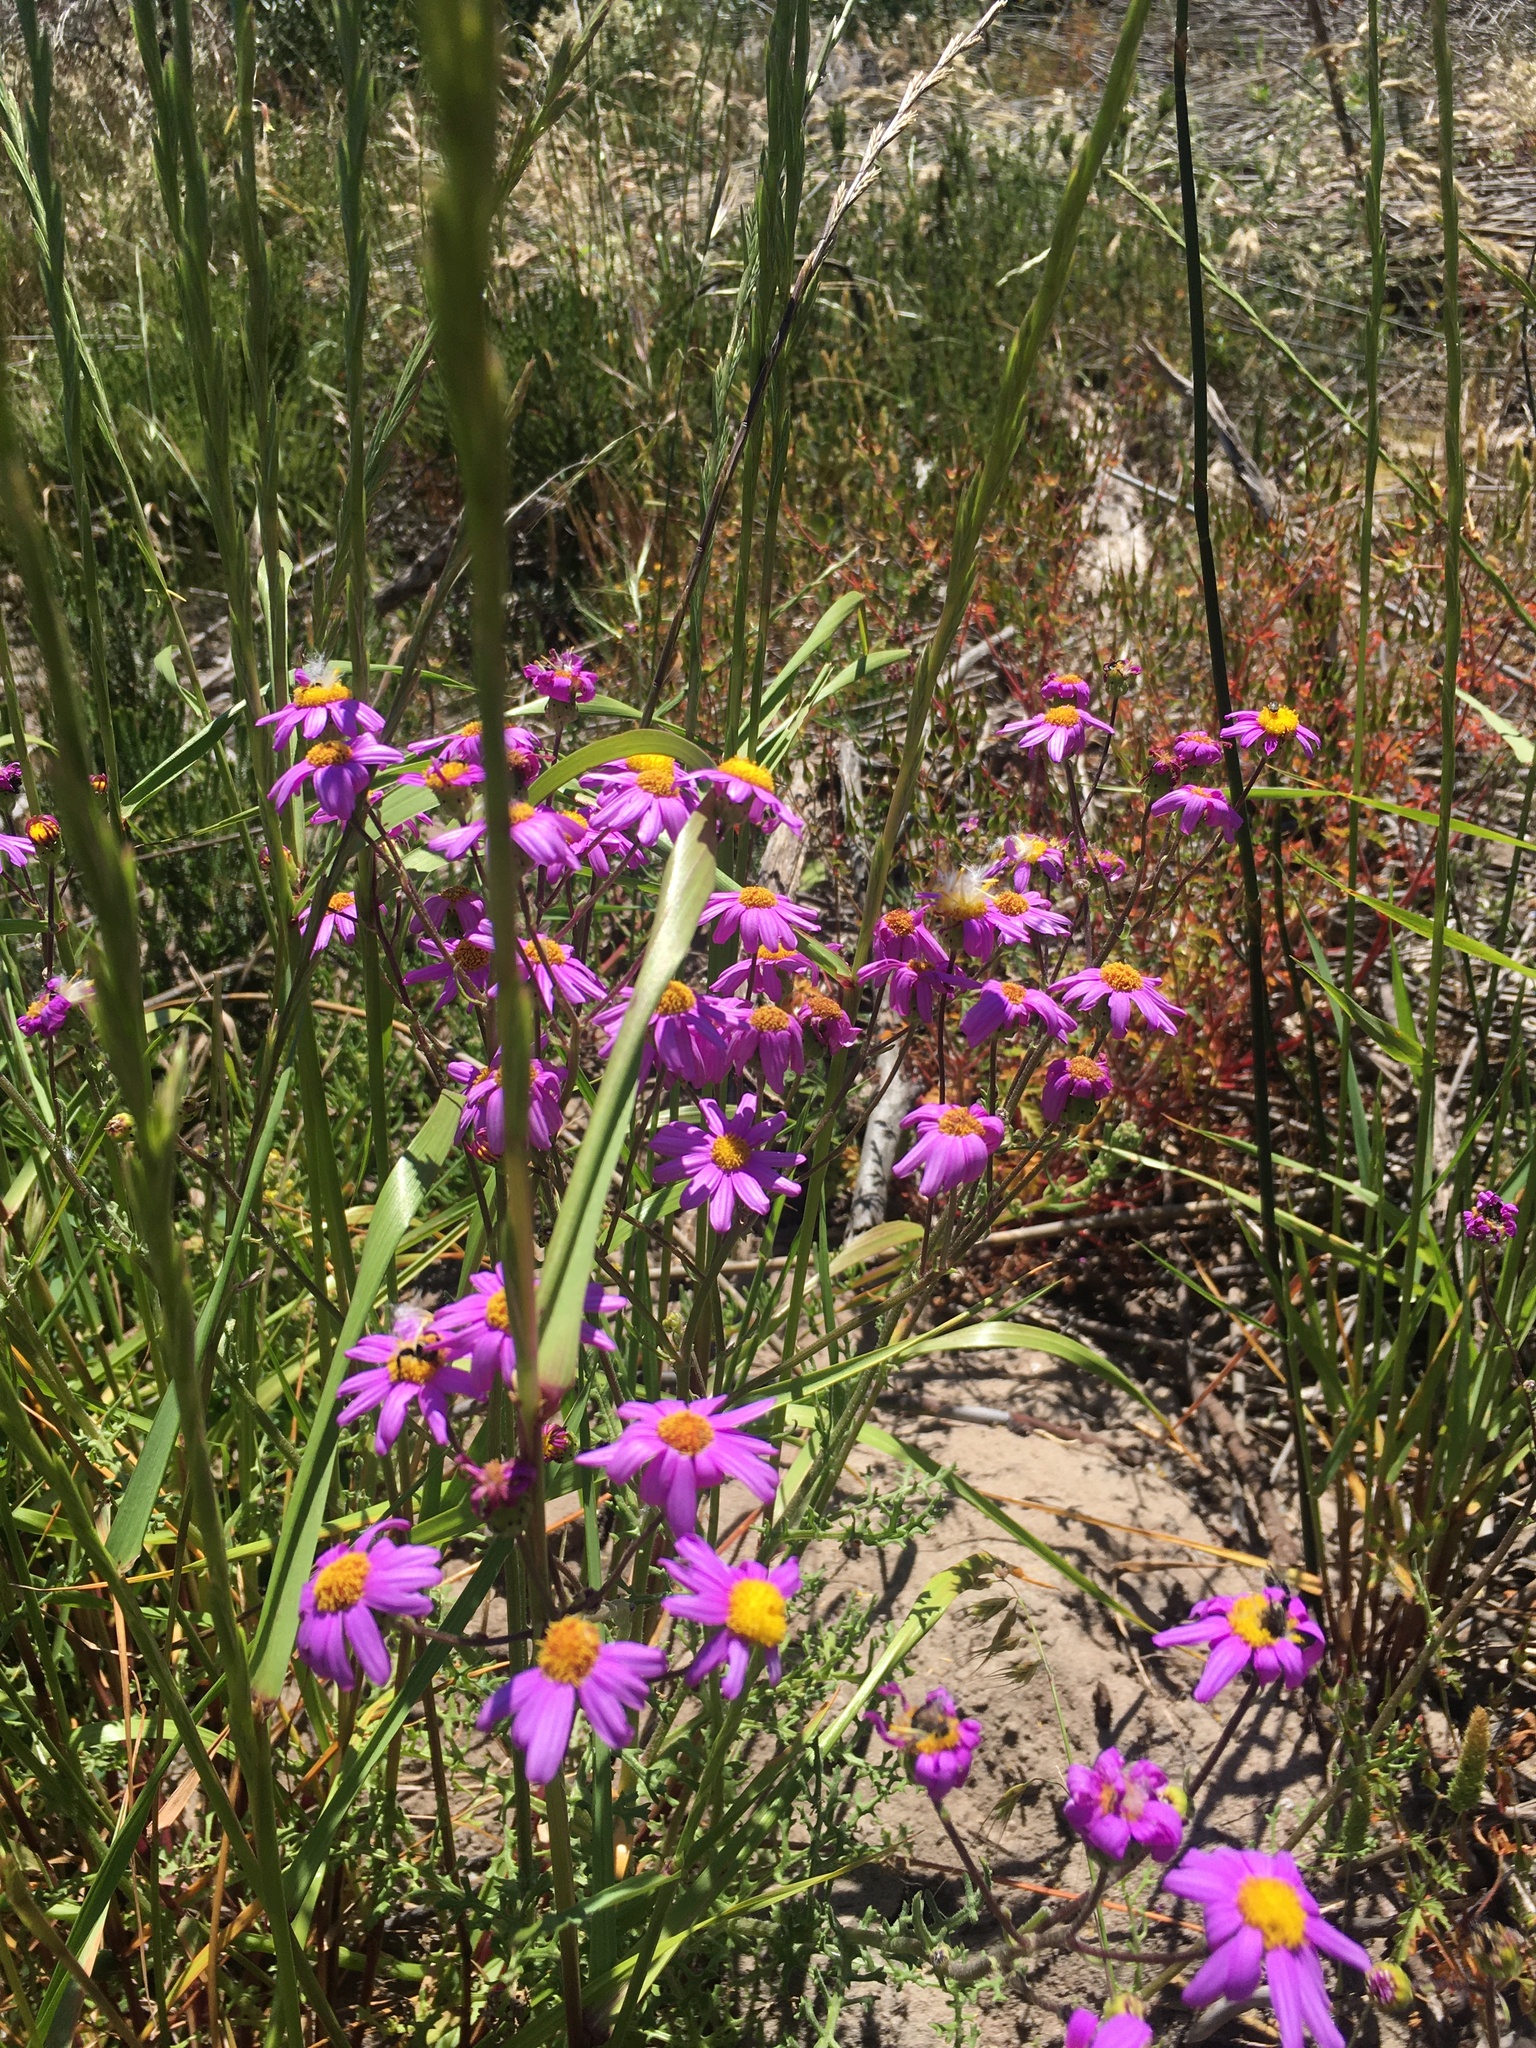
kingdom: Plantae
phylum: Tracheophyta
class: Magnoliopsida
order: Asterales
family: Asteraceae
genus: Senecio
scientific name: Senecio elegans
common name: Purple groundsel
